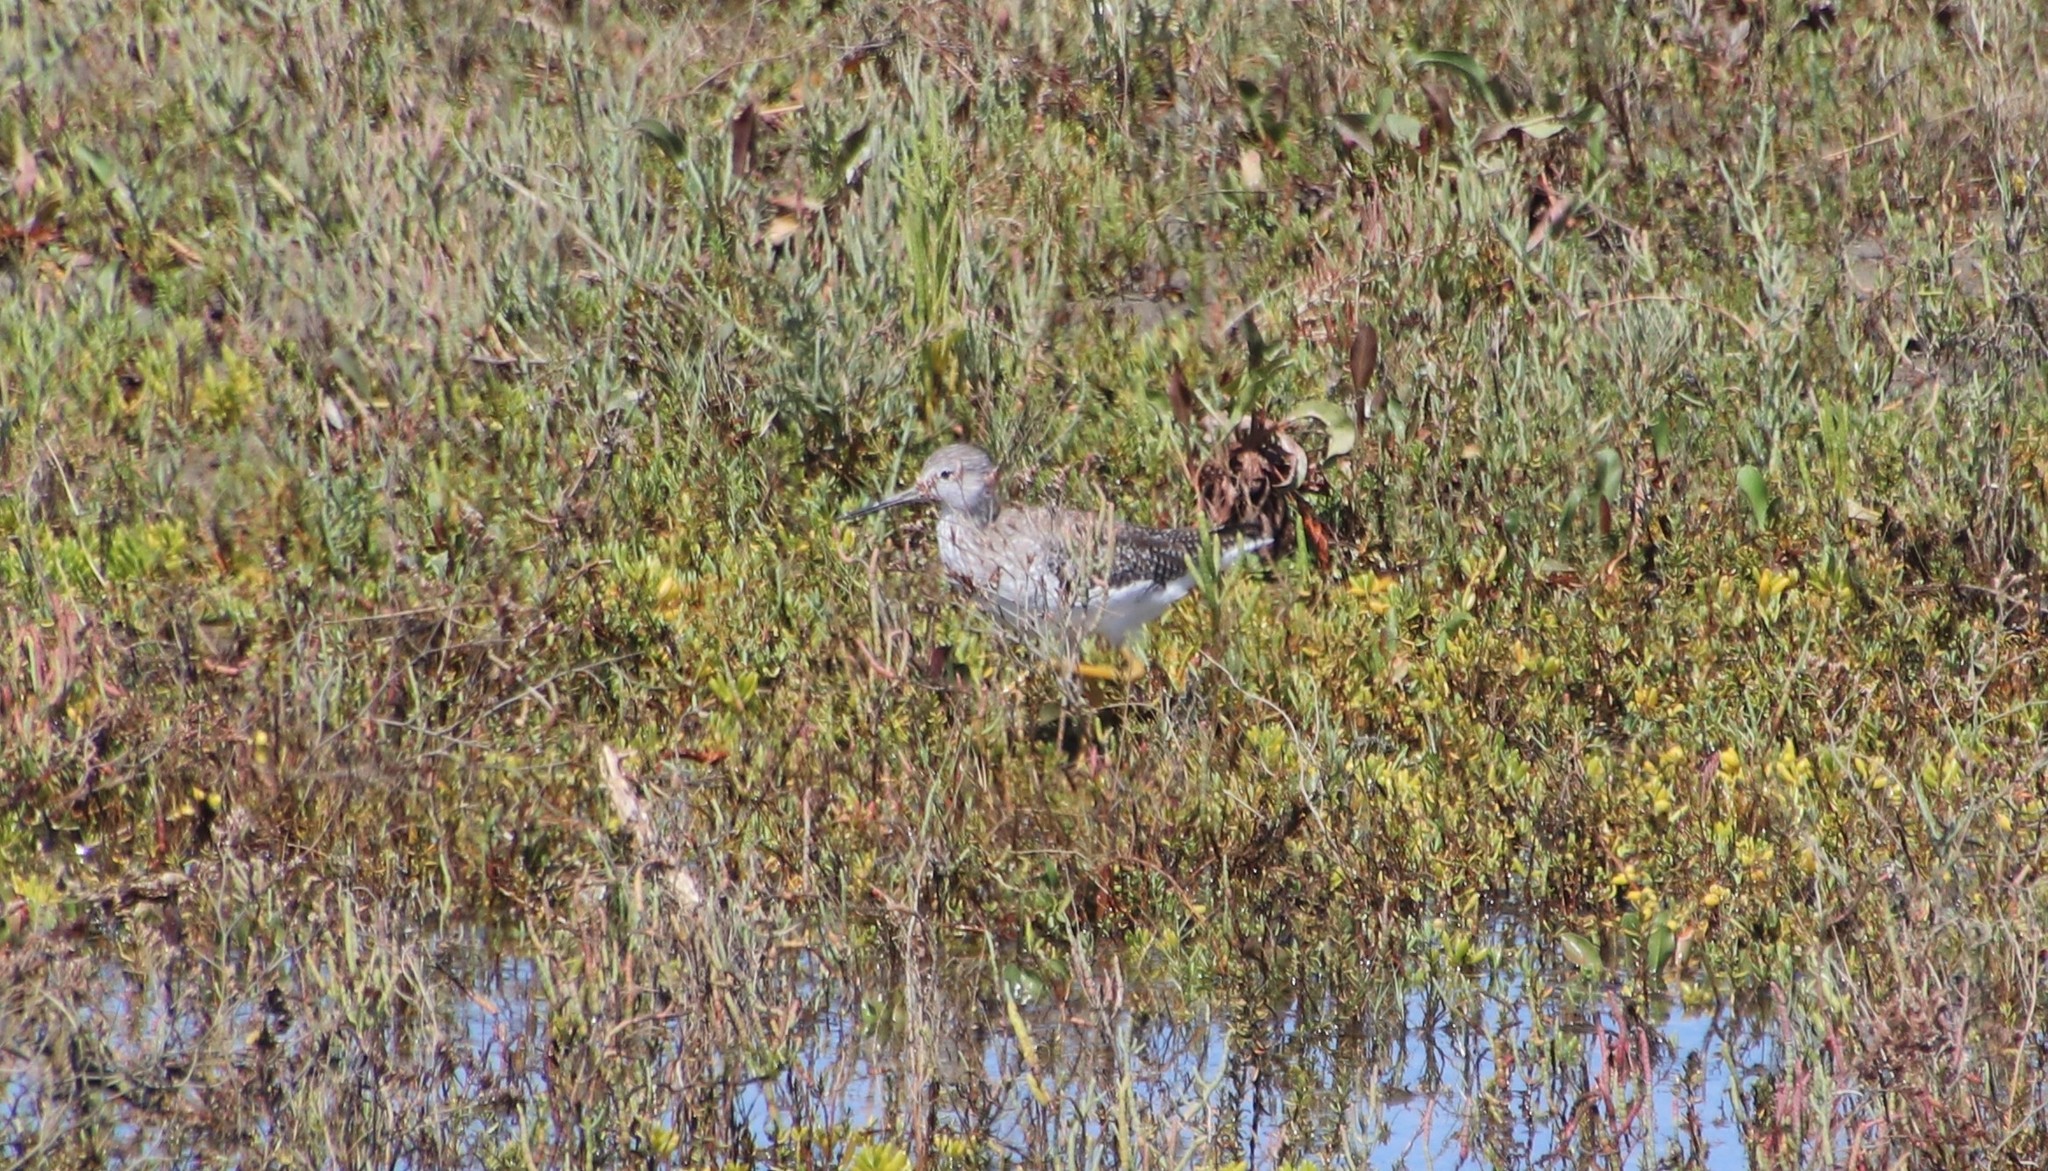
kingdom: Animalia
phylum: Chordata
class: Aves
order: Charadriiformes
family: Scolopacidae
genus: Tringa
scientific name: Tringa melanoleuca
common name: Greater yellowlegs
